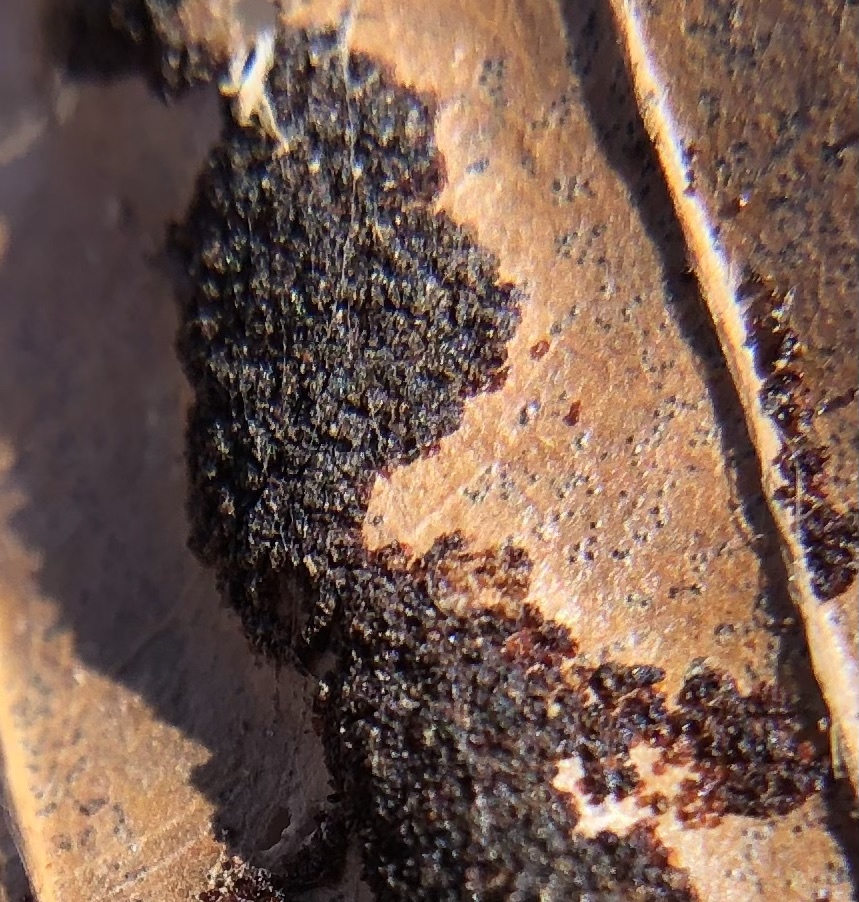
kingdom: Animalia
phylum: Arthropoda
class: Arachnida
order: Trombidiformes
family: Eriophyidae
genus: Acalitus
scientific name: Acalitus
